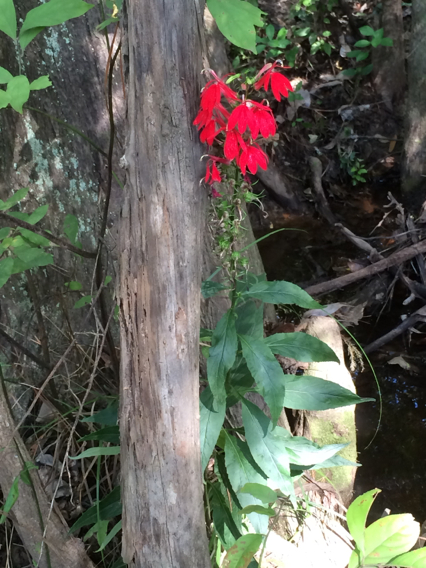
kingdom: Plantae
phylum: Tracheophyta
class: Magnoliopsida
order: Asterales
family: Campanulaceae
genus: Lobelia
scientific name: Lobelia cardinalis
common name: Cardinal flower
